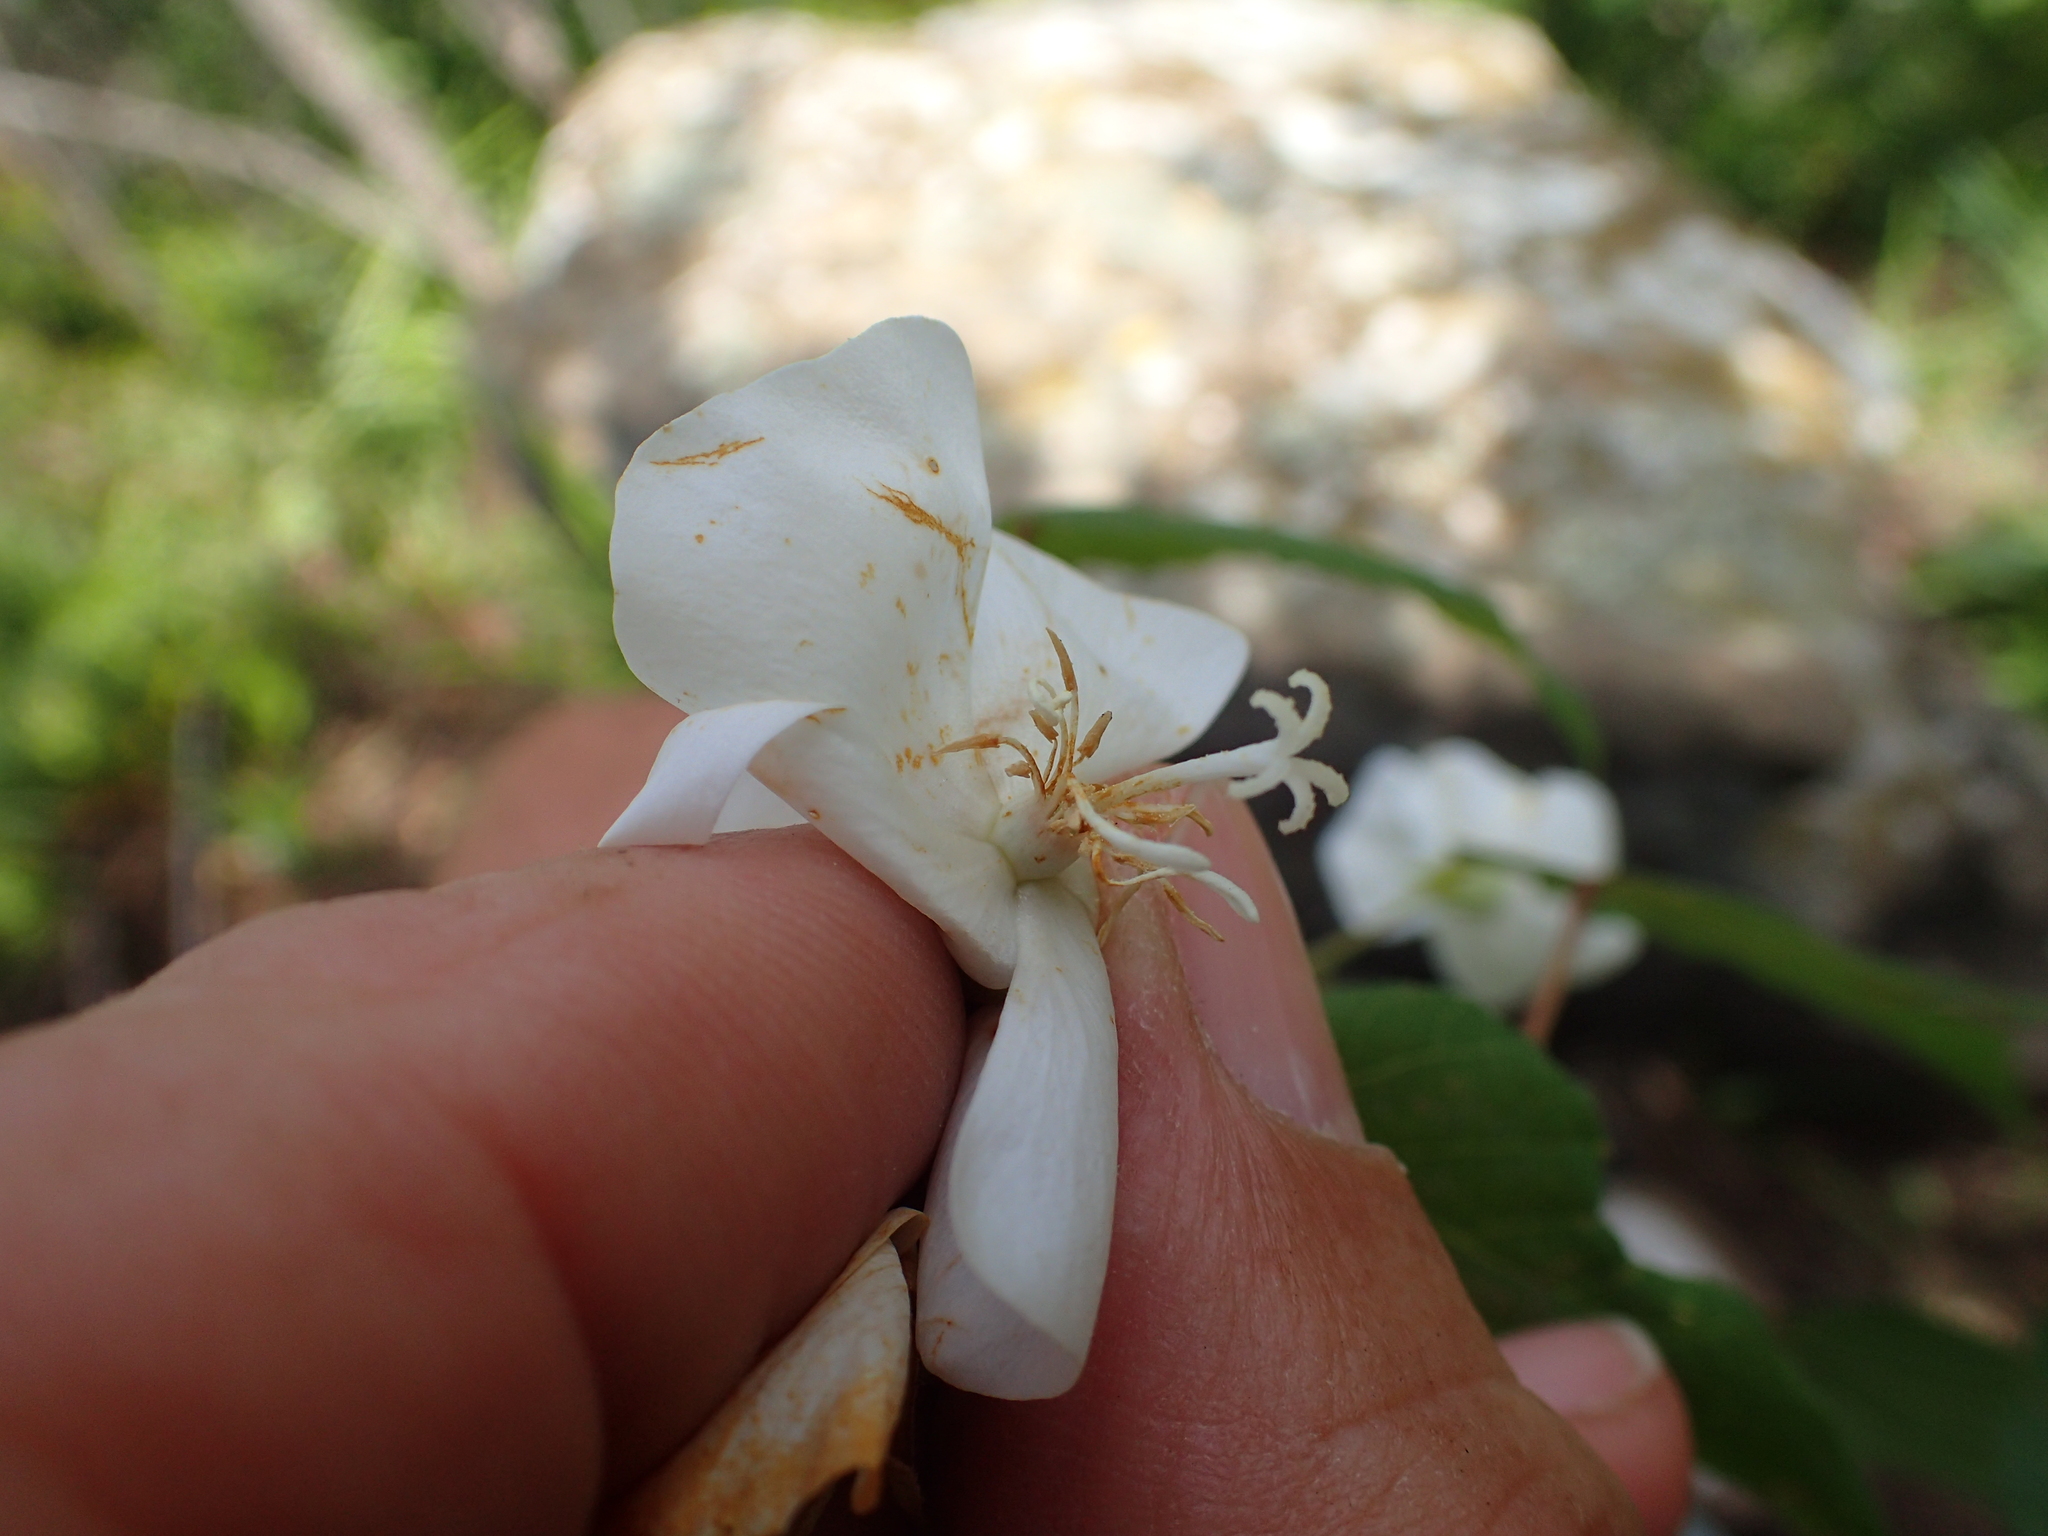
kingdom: Plantae
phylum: Tracheophyta
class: Magnoliopsida
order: Malvales
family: Malvaceae
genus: Dombeya
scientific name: Dombeya tiliacea
